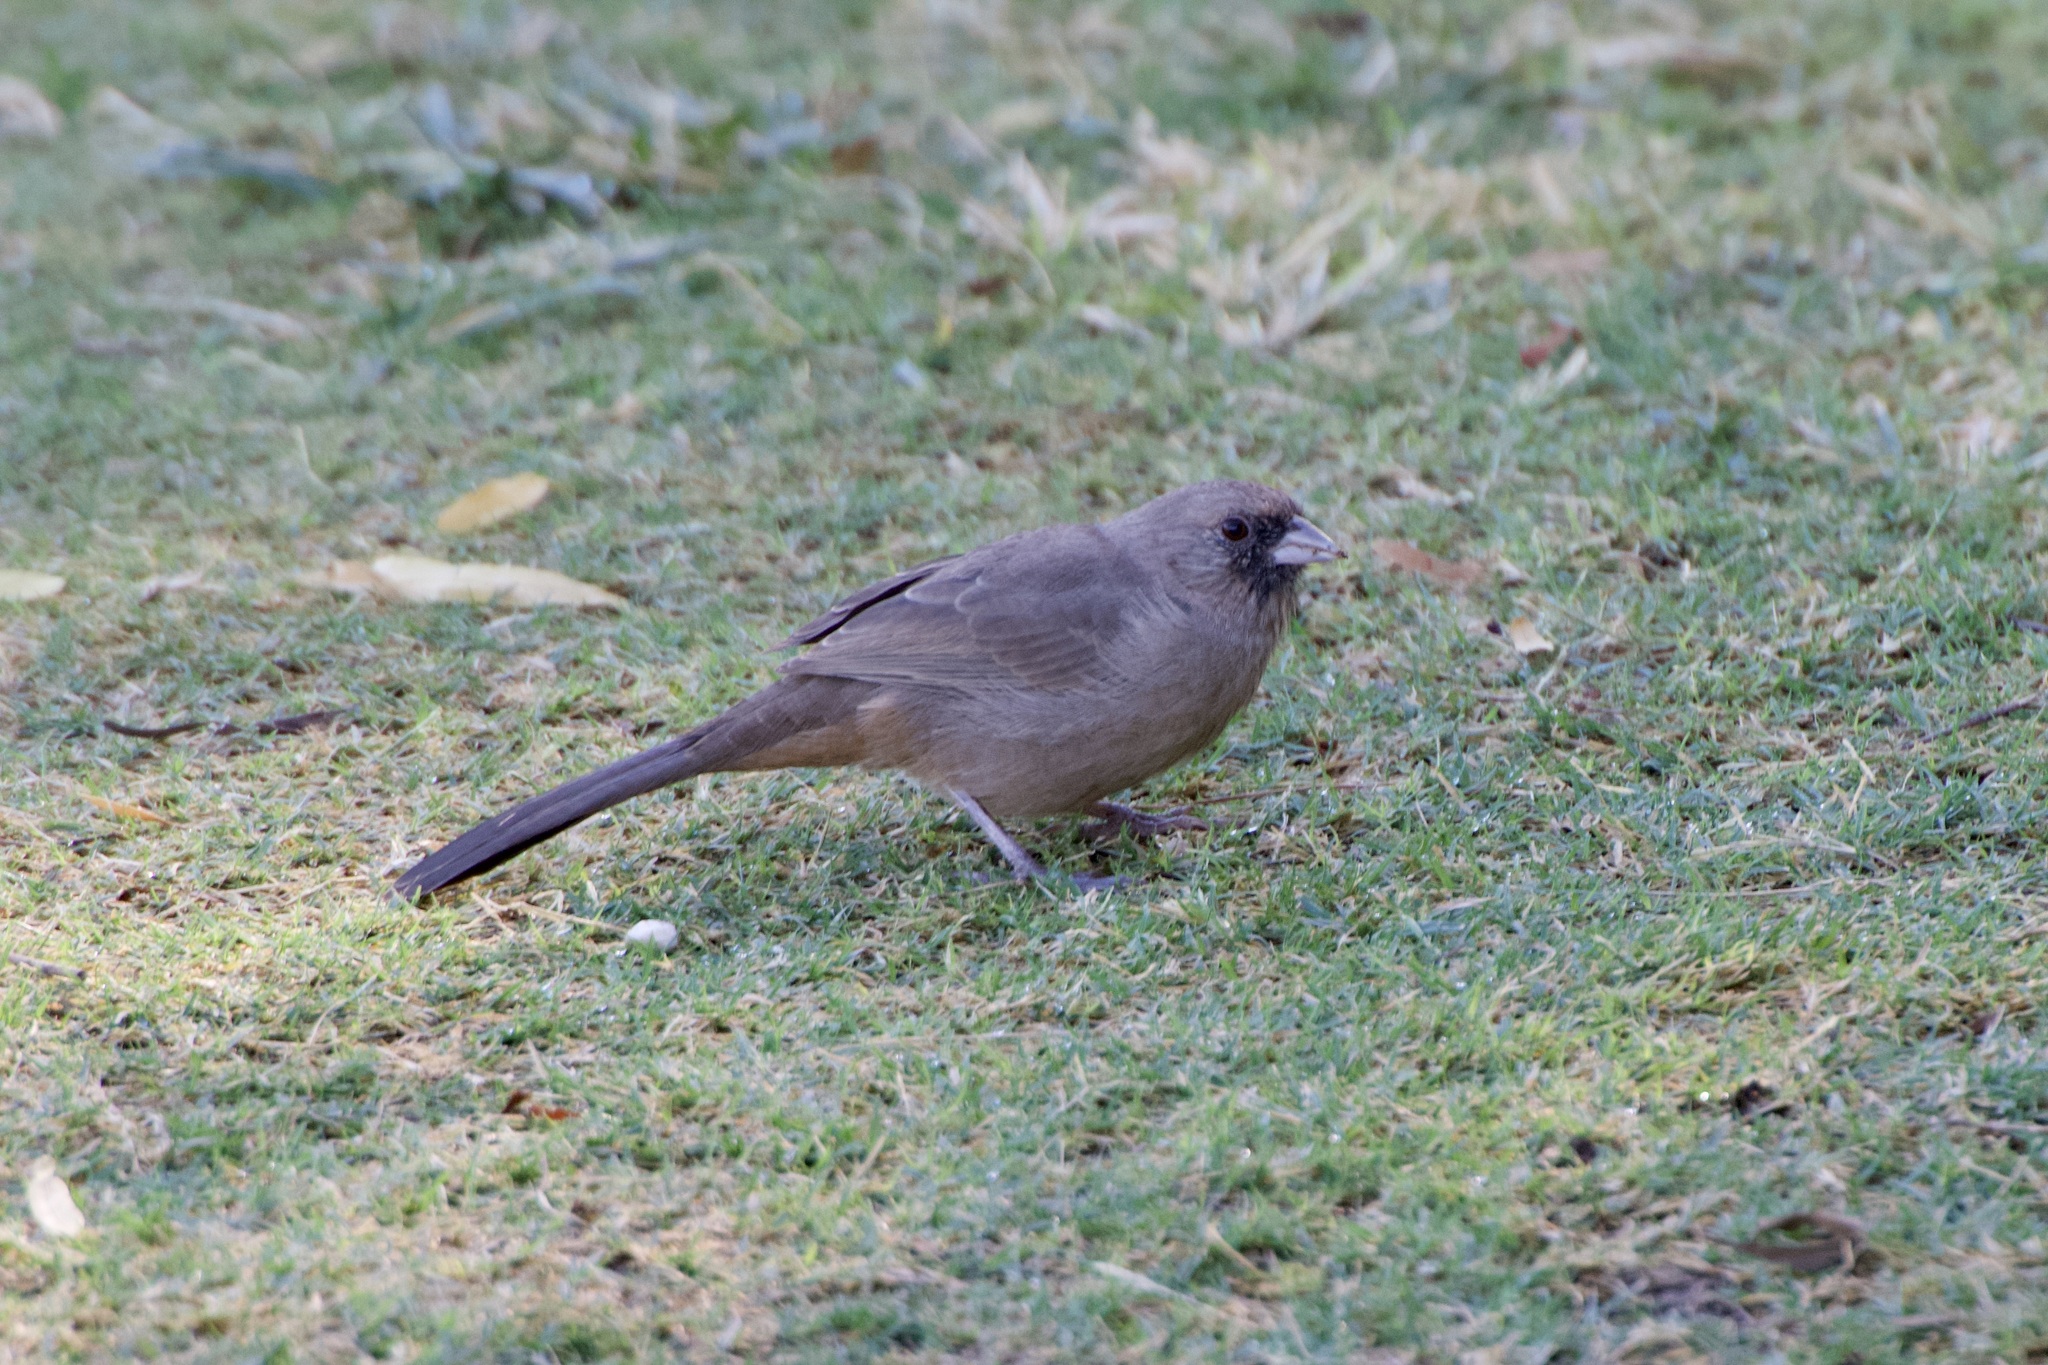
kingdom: Animalia
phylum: Chordata
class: Aves
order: Passeriformes
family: Passerellidae
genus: Melozone
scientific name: Melozone aberti
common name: Abert's towhee
